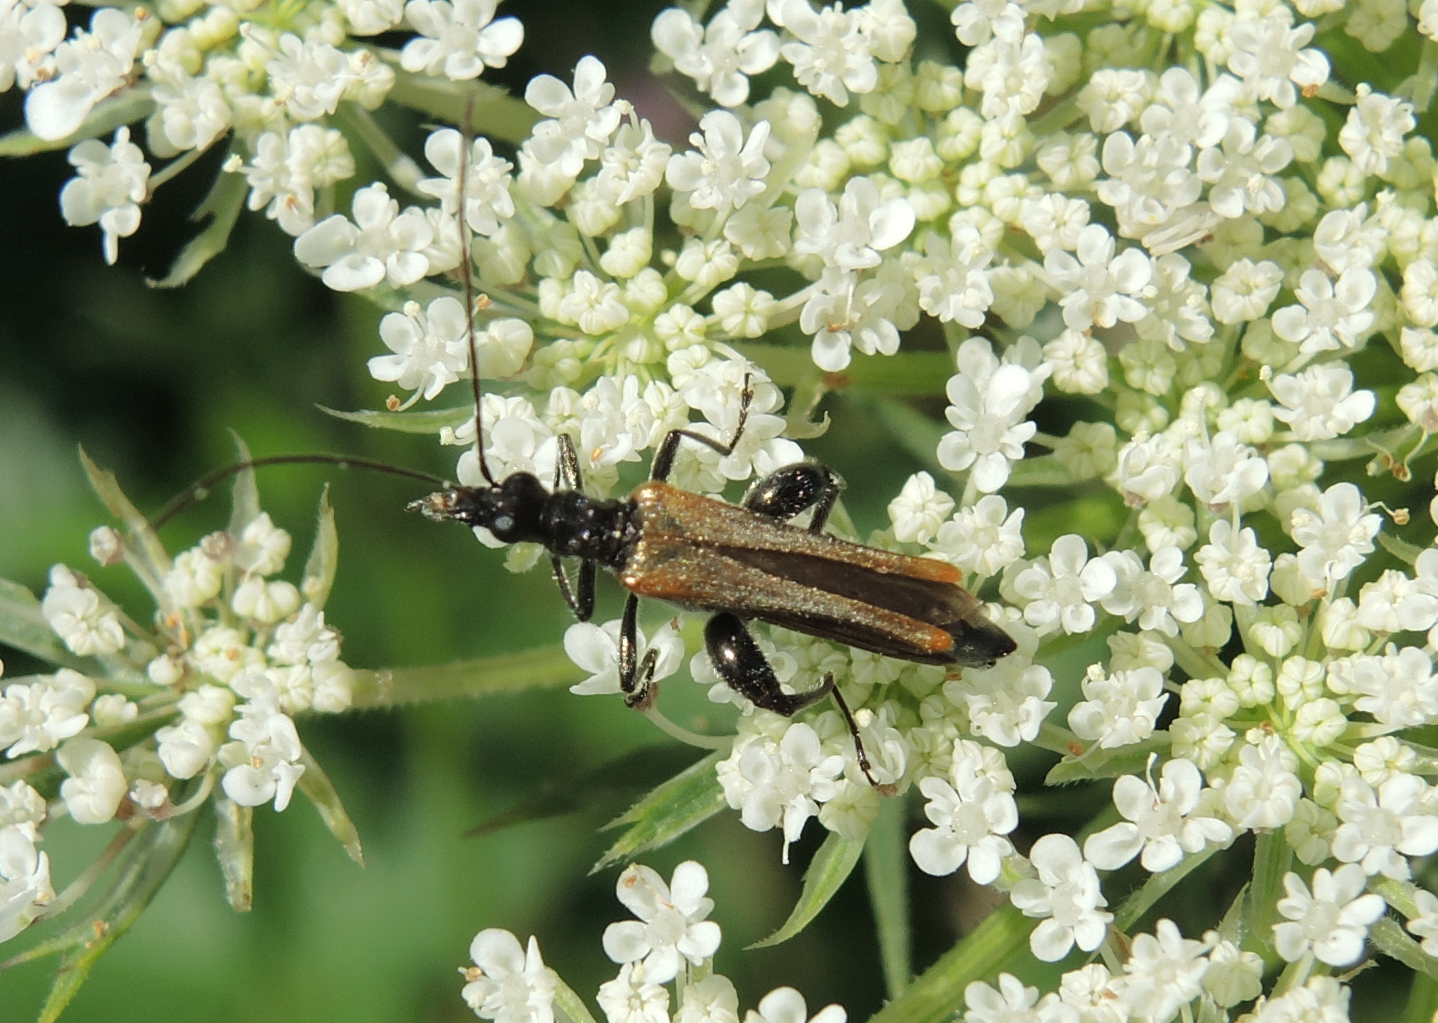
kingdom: Animalia
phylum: Arthropoda
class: Insecta
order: Coleoptera
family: Oedemeridae
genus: Oedemera
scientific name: Oedemera femorata
